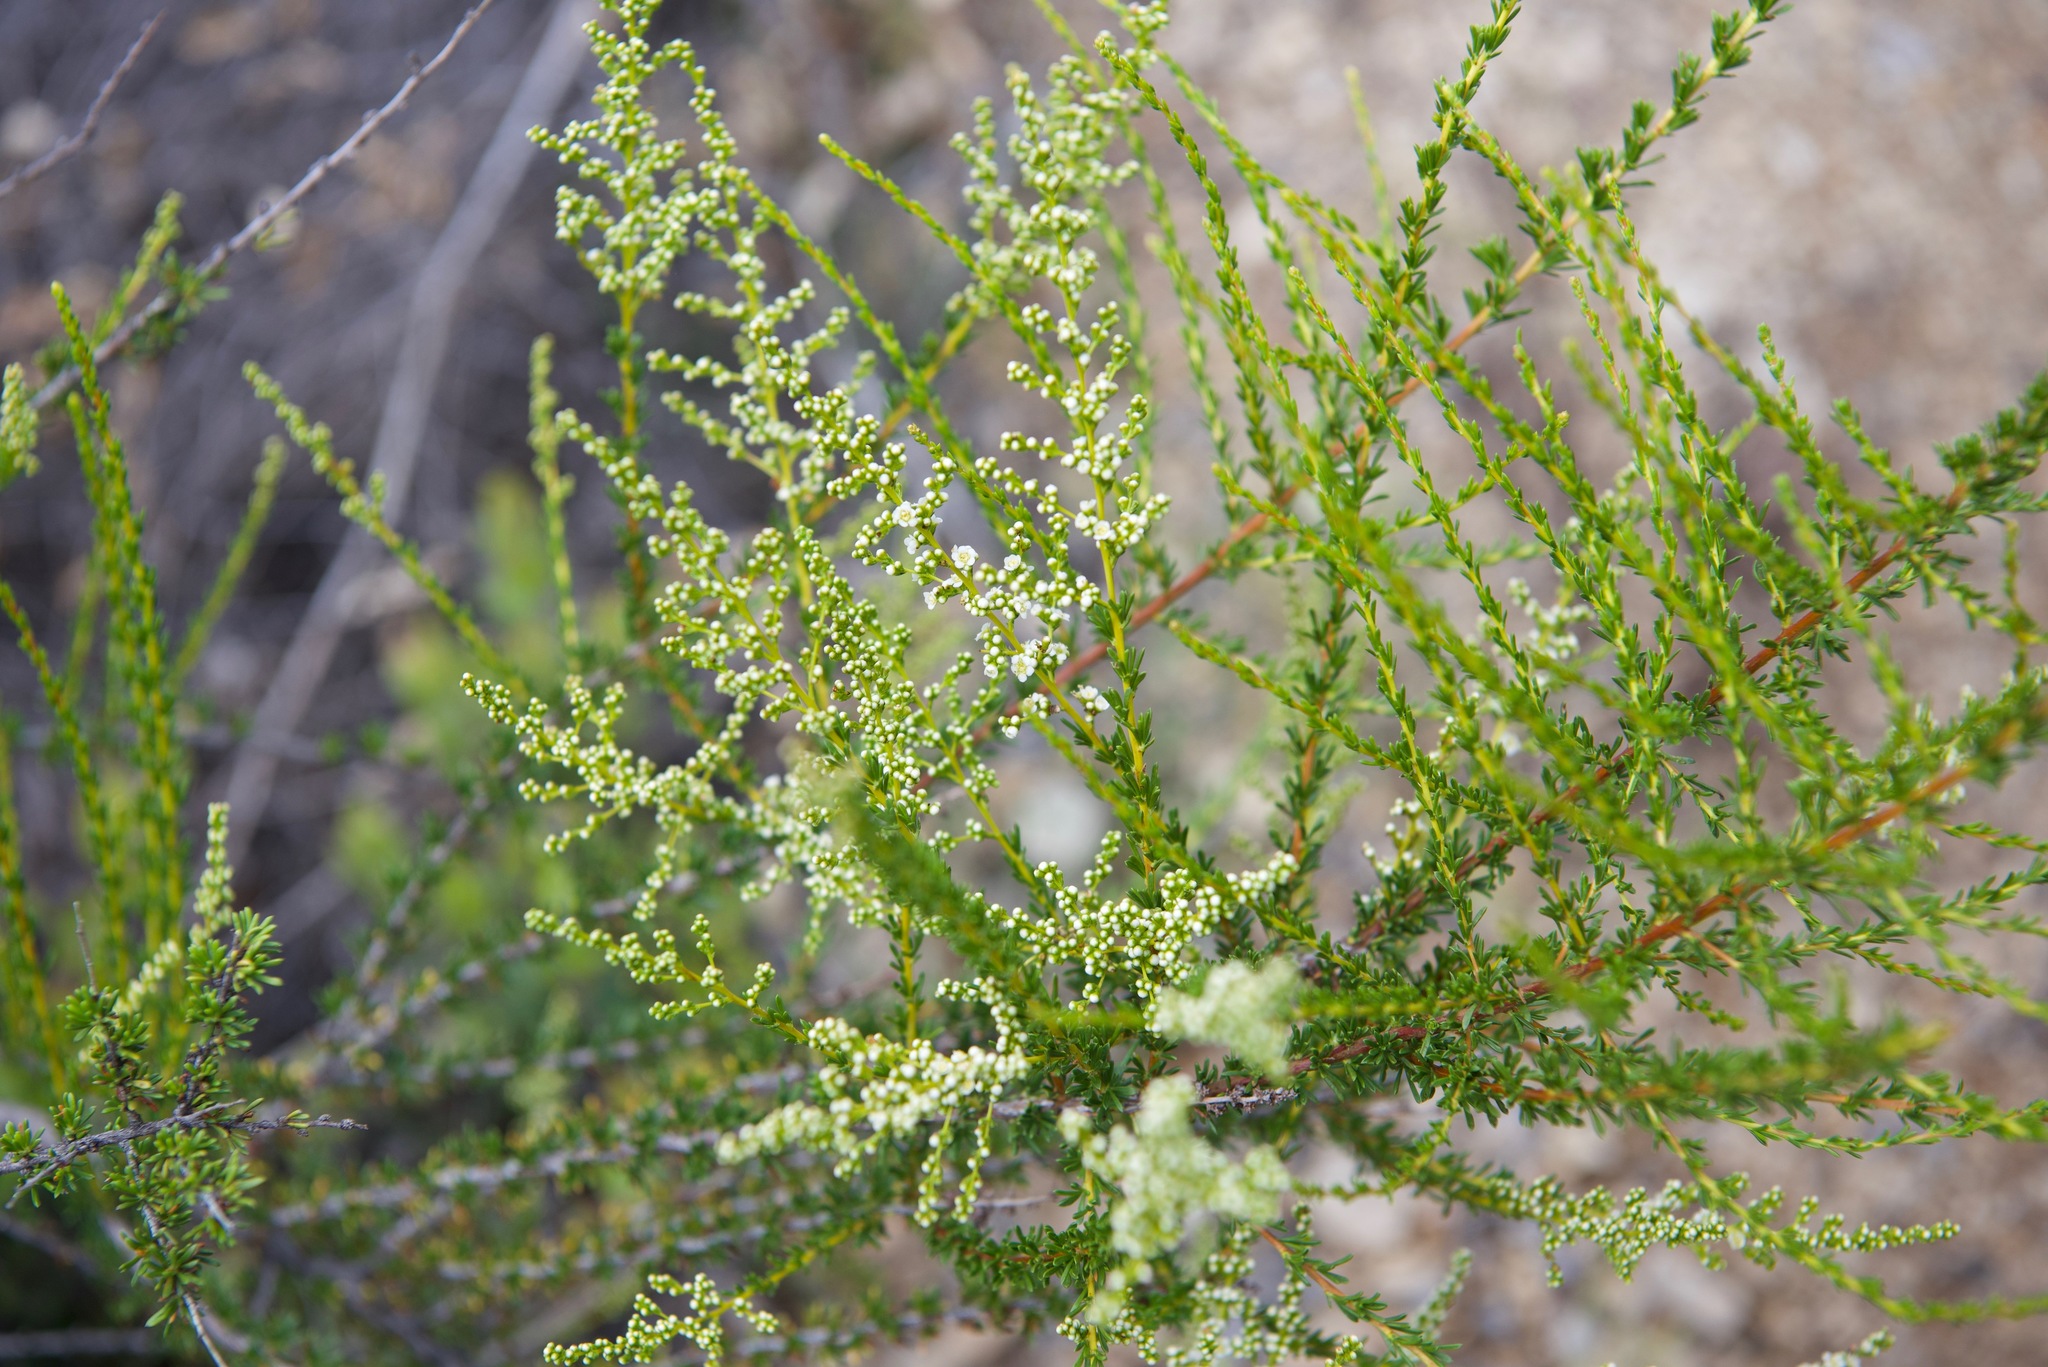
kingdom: Plantae
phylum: Tracheophyta
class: Magnoliopsida
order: Rosales
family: Rosaceae
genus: Adenostoma
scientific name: Adenostoma fasciculatum
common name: Chamise
